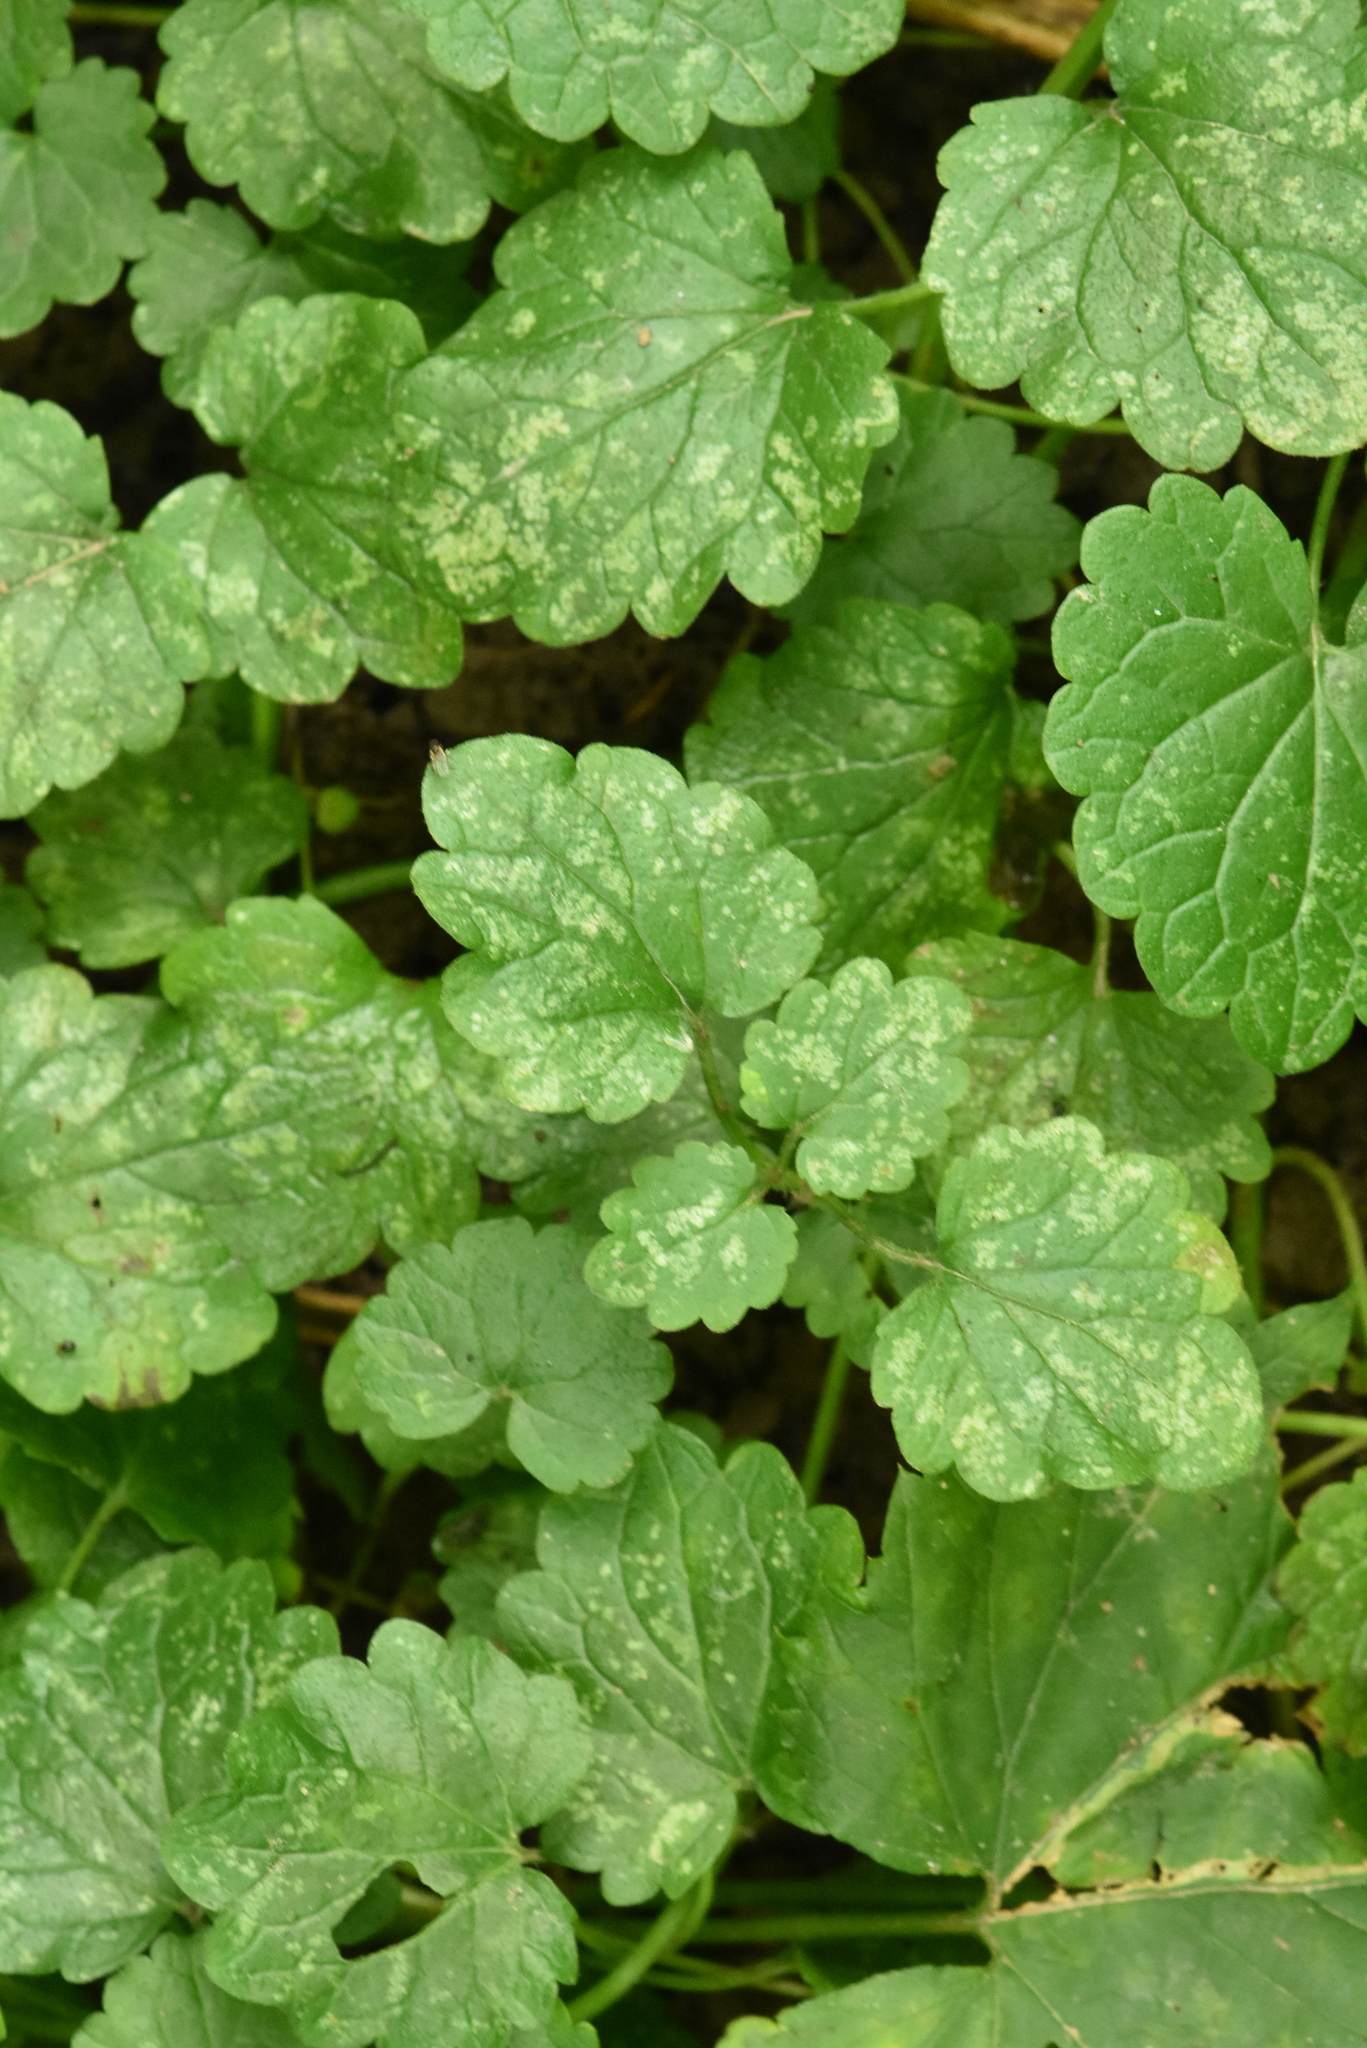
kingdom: Plantae
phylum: Tracheophyta
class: Magnoliopsida
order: Lamiales
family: Lamiaceae
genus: Lamium
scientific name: Lamium galeobdolon
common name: Yellow archangel
